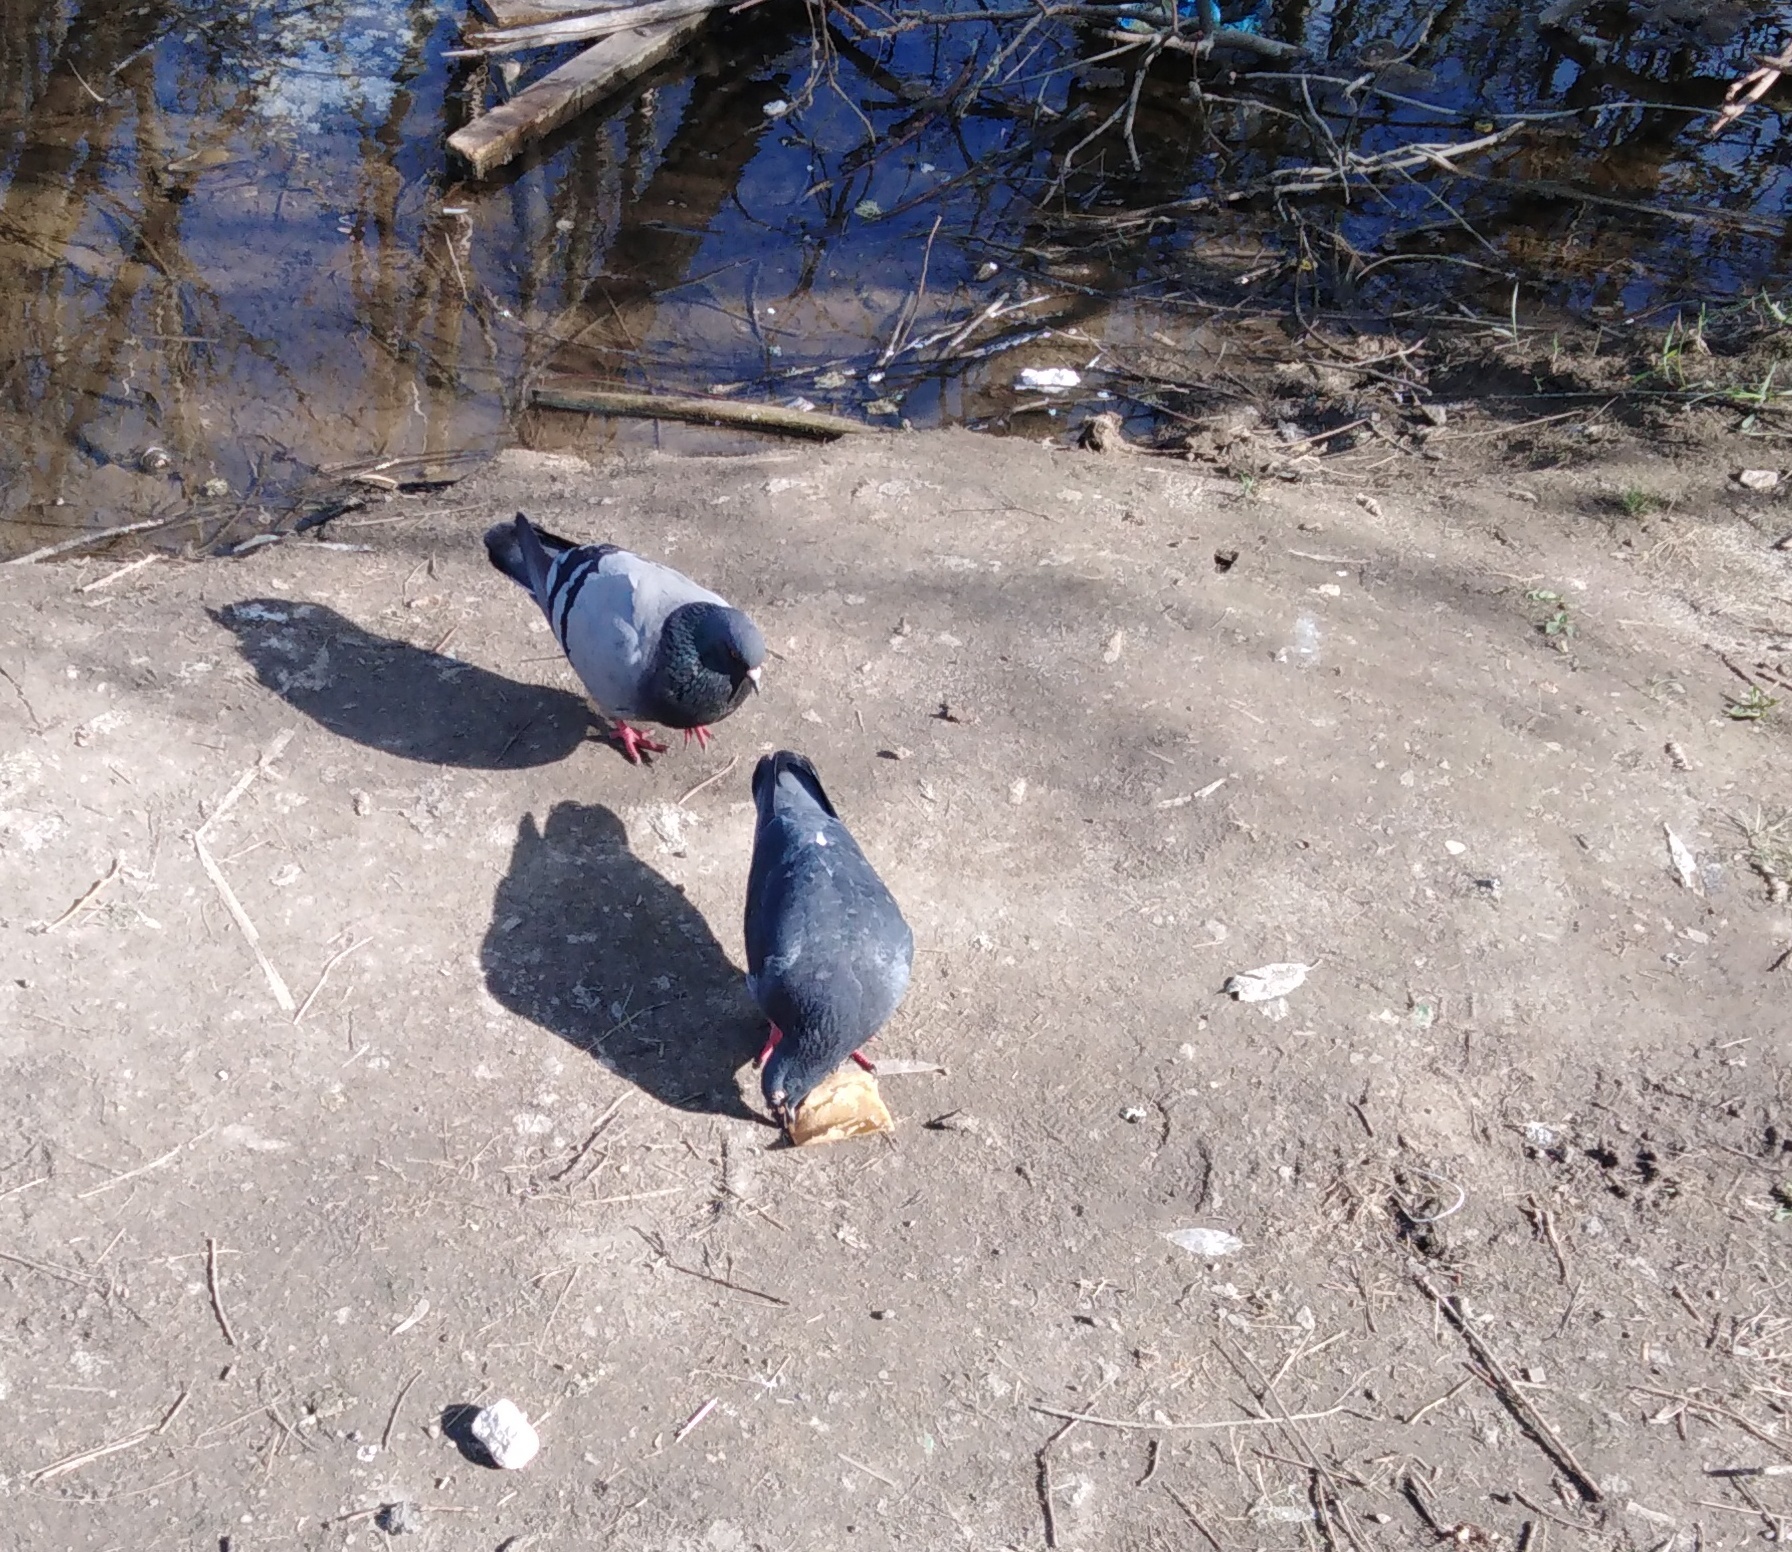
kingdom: Animalia
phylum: Chordata
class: Aves
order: Columbiformes
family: Columbidae
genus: Columba
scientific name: Columba livia
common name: Rock pigeon
